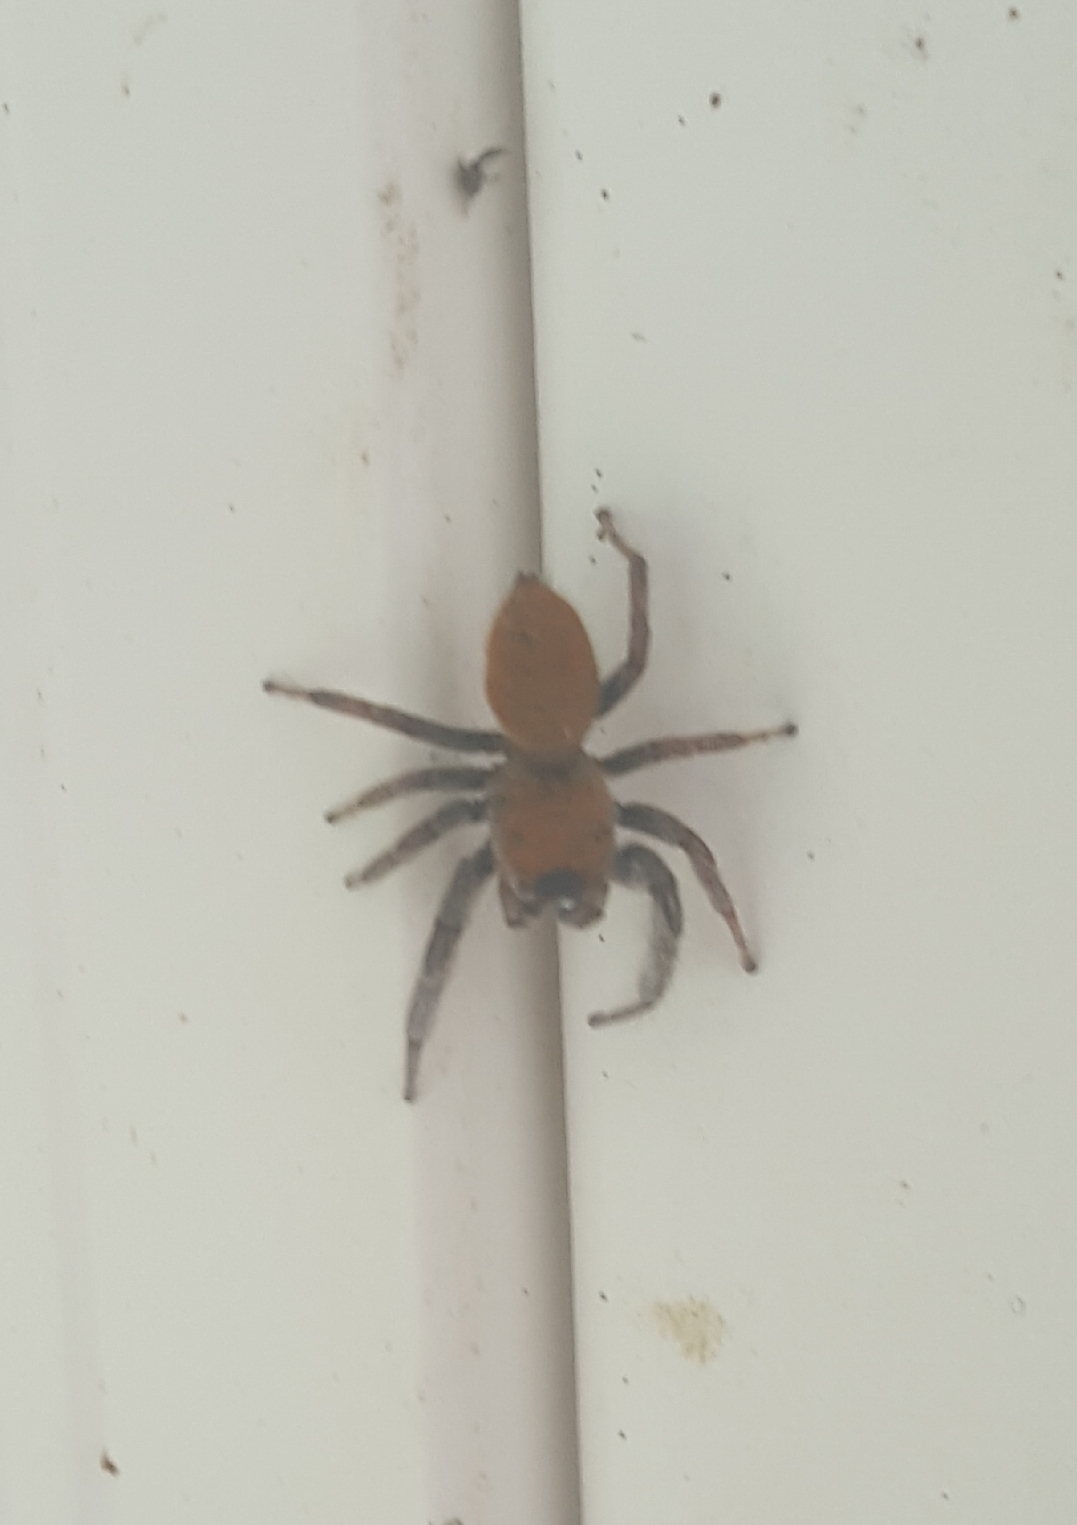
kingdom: Animalia
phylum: Arthropoda
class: Arachnida
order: Araneae
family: Salticidae
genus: Phidippus
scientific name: Phidippus whitmani
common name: Whitman's jumping spider
